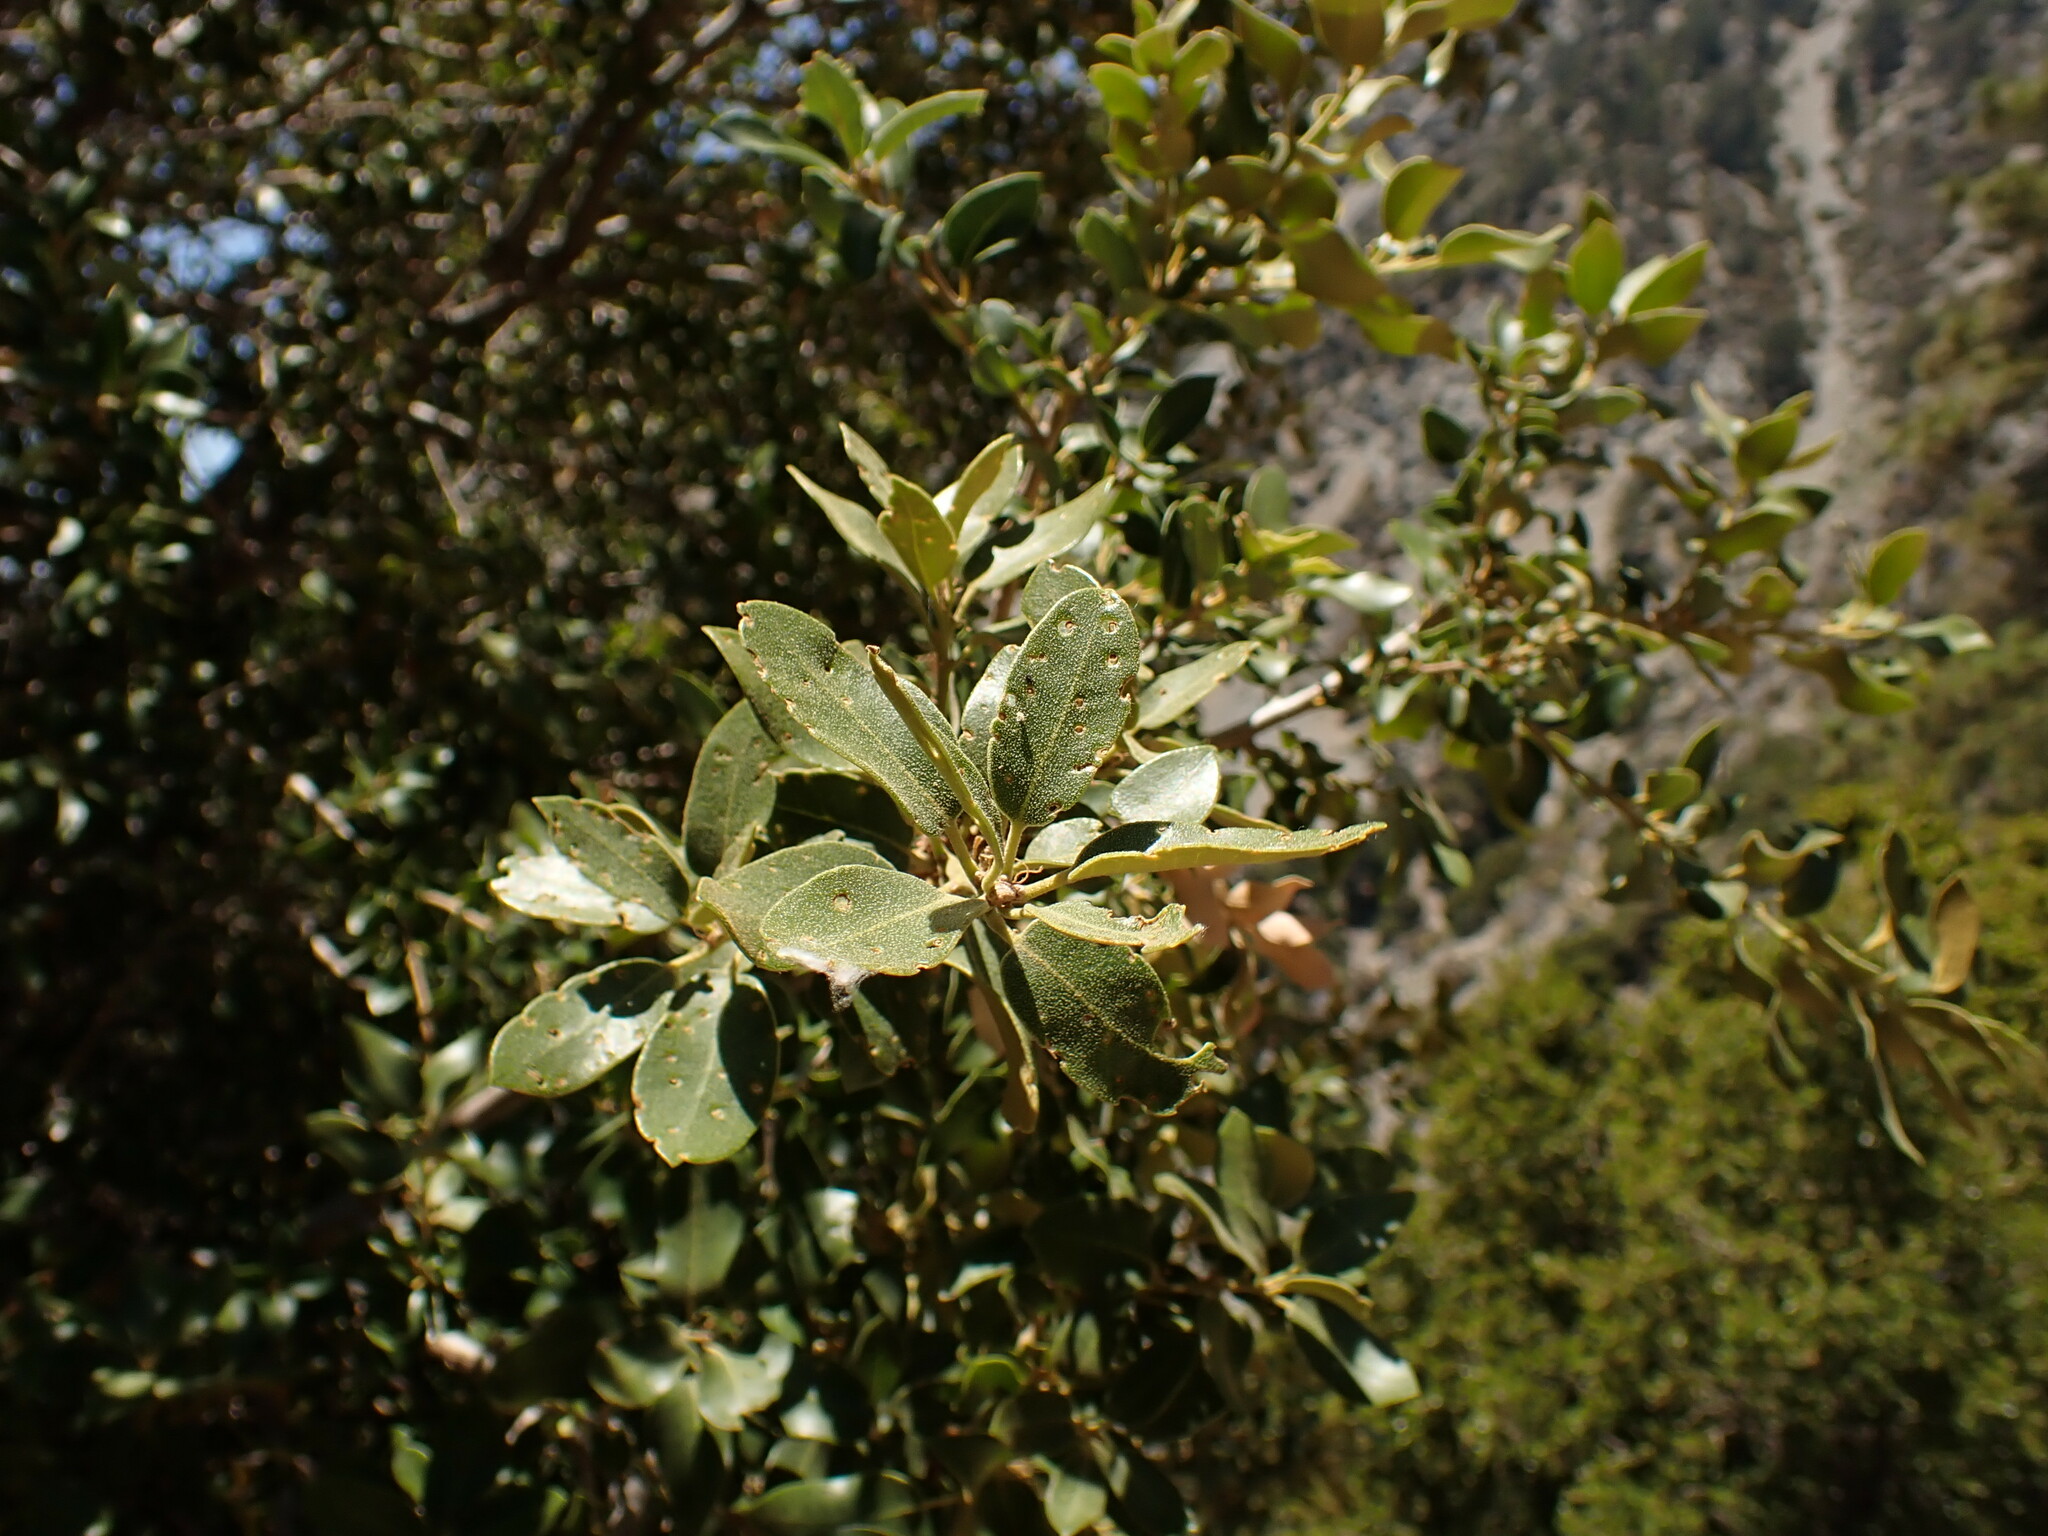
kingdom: Plantae
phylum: Tracheophyta
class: Magnoliopsida
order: Fagales
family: Fagaceae
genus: Quercus
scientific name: Quercus chrysolepis
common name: Canyon live oak
